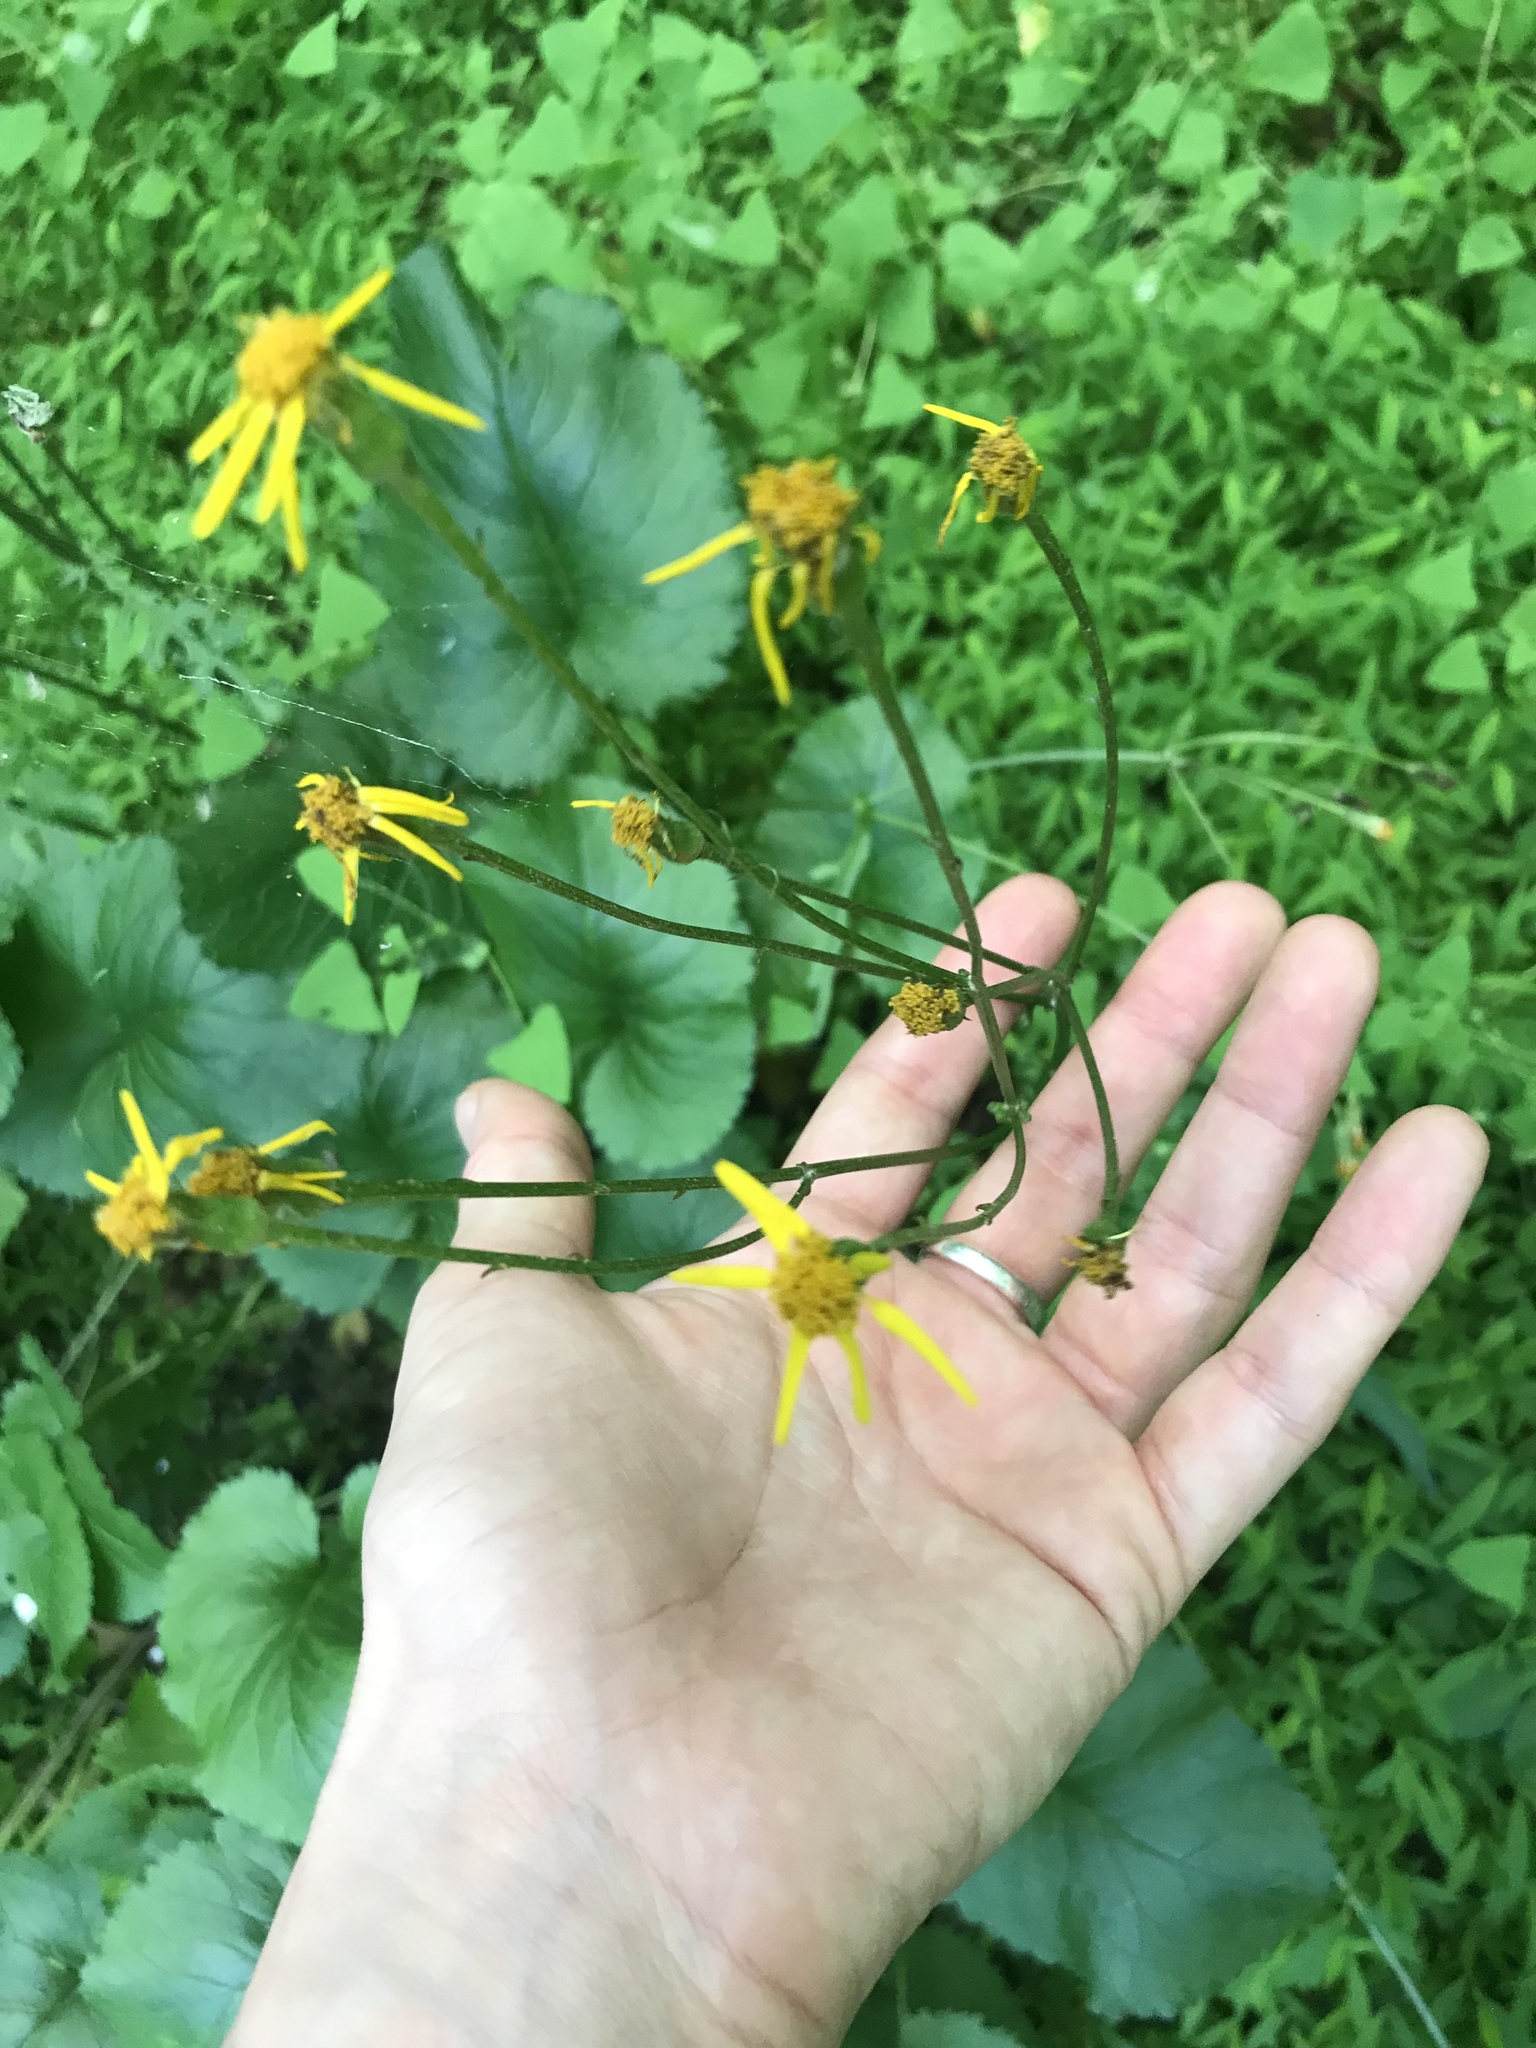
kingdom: Plantae
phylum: Tracheophyta
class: Magnoliopsida
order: Asterales
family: Asteraceae
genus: Packera
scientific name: Packera aurea
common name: Golden groundsel
